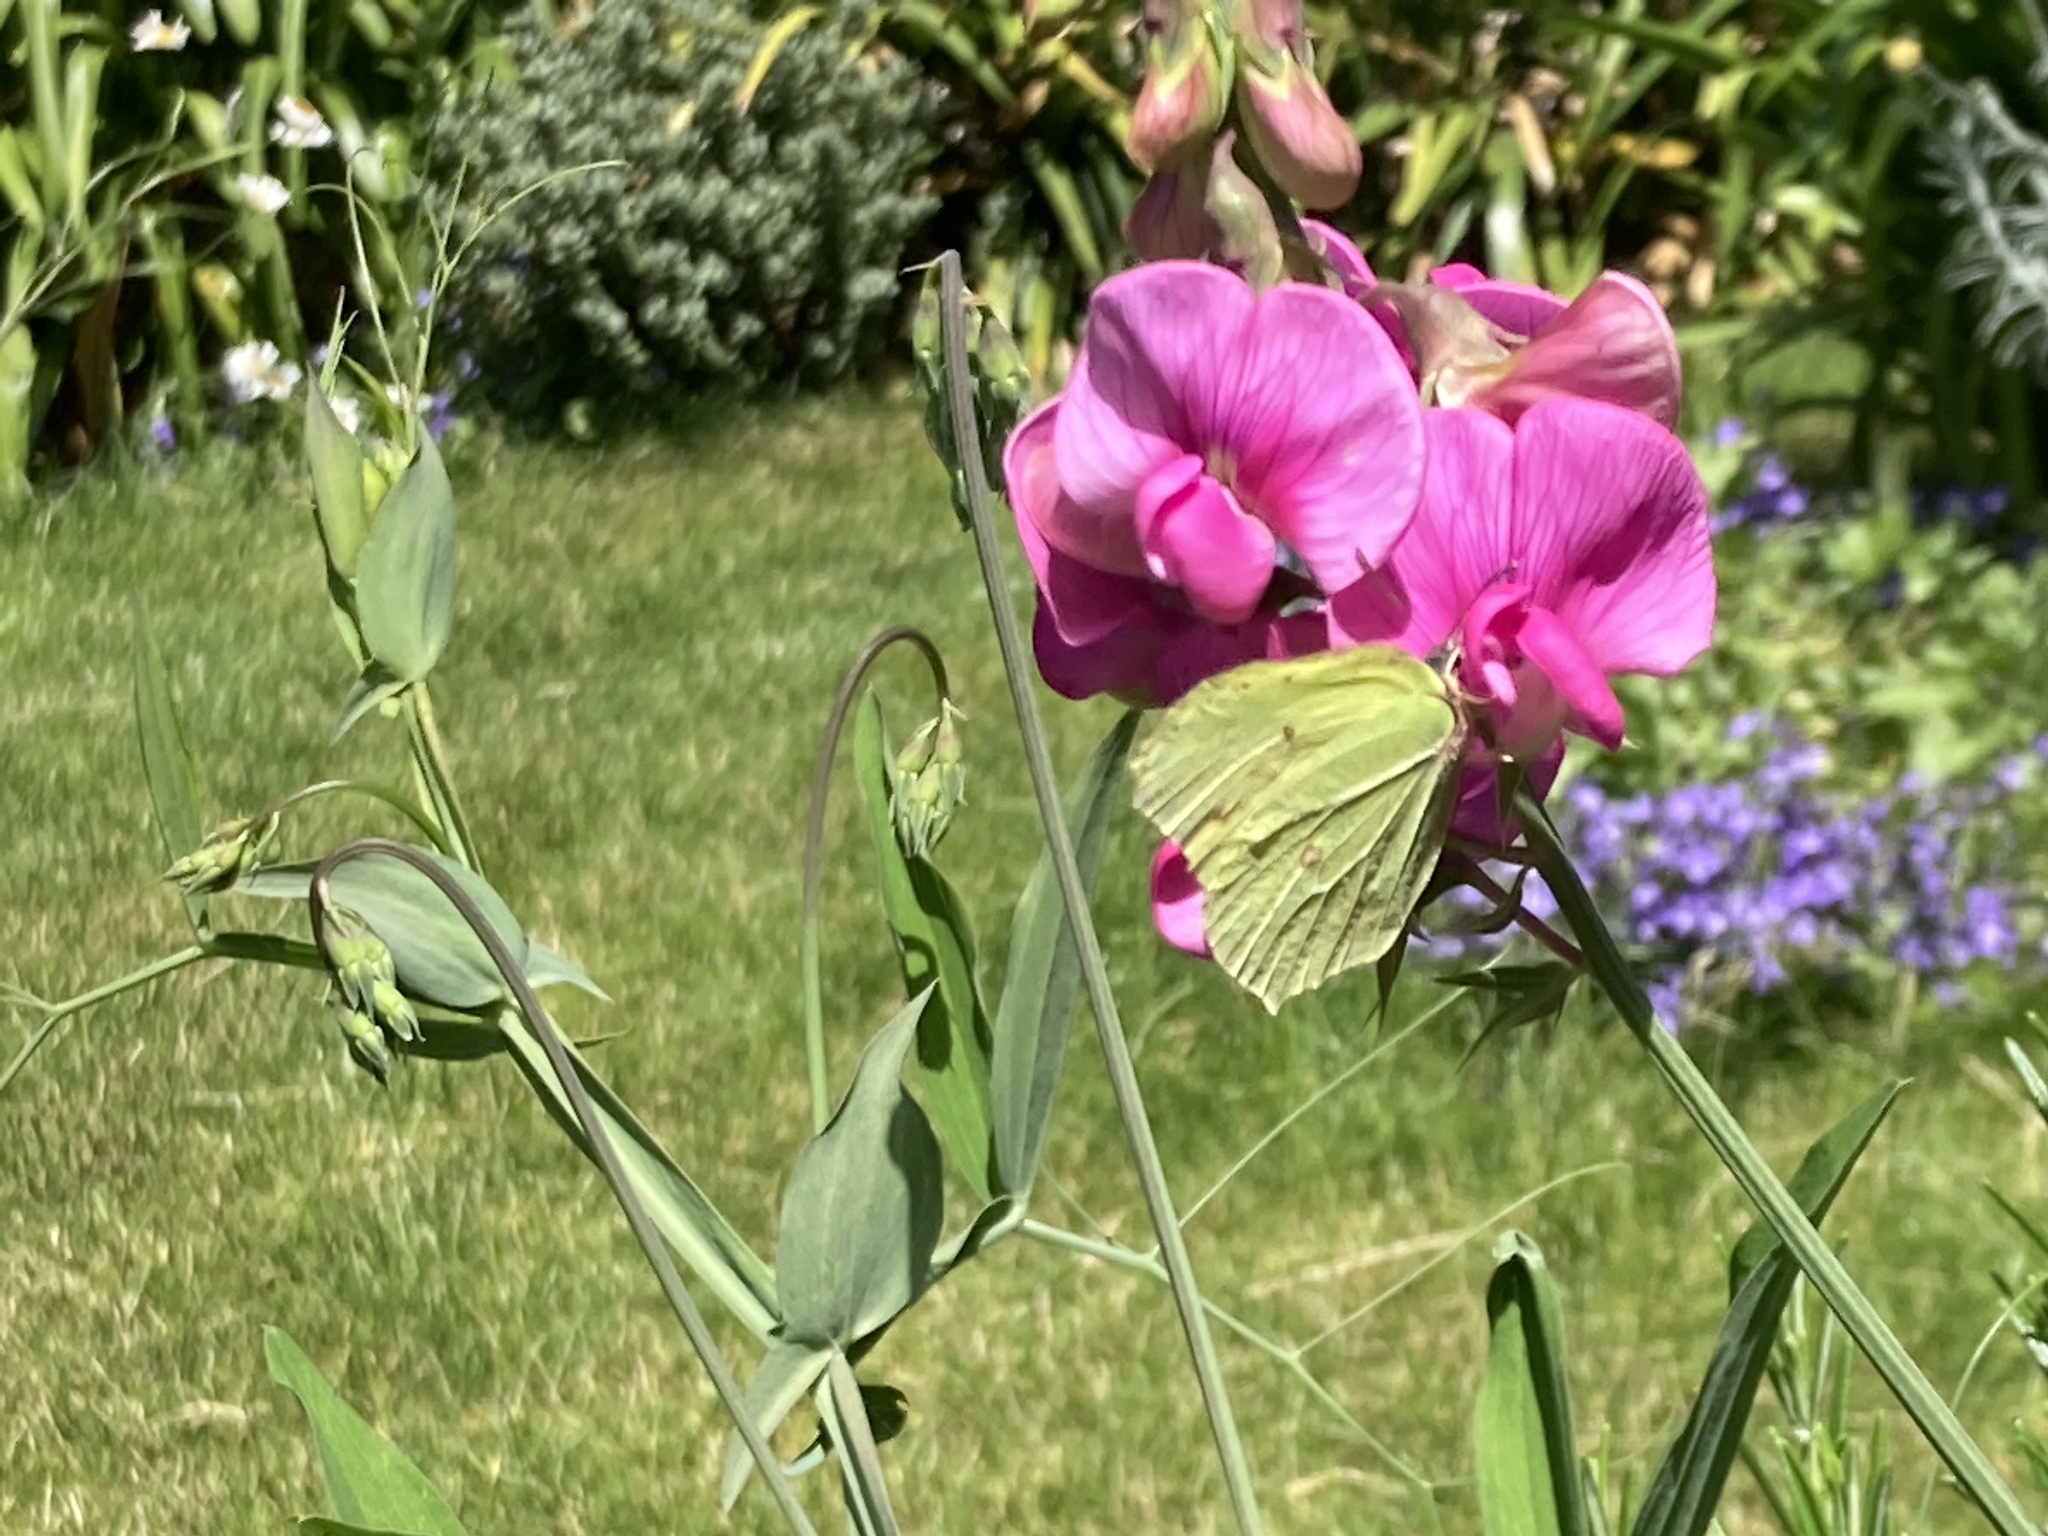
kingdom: Animalia
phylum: Arthropoda
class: Insecta
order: Lepidoptera
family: Pieridae
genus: Gonepteryx
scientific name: Gonepteryx rhamni
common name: Brimstone
